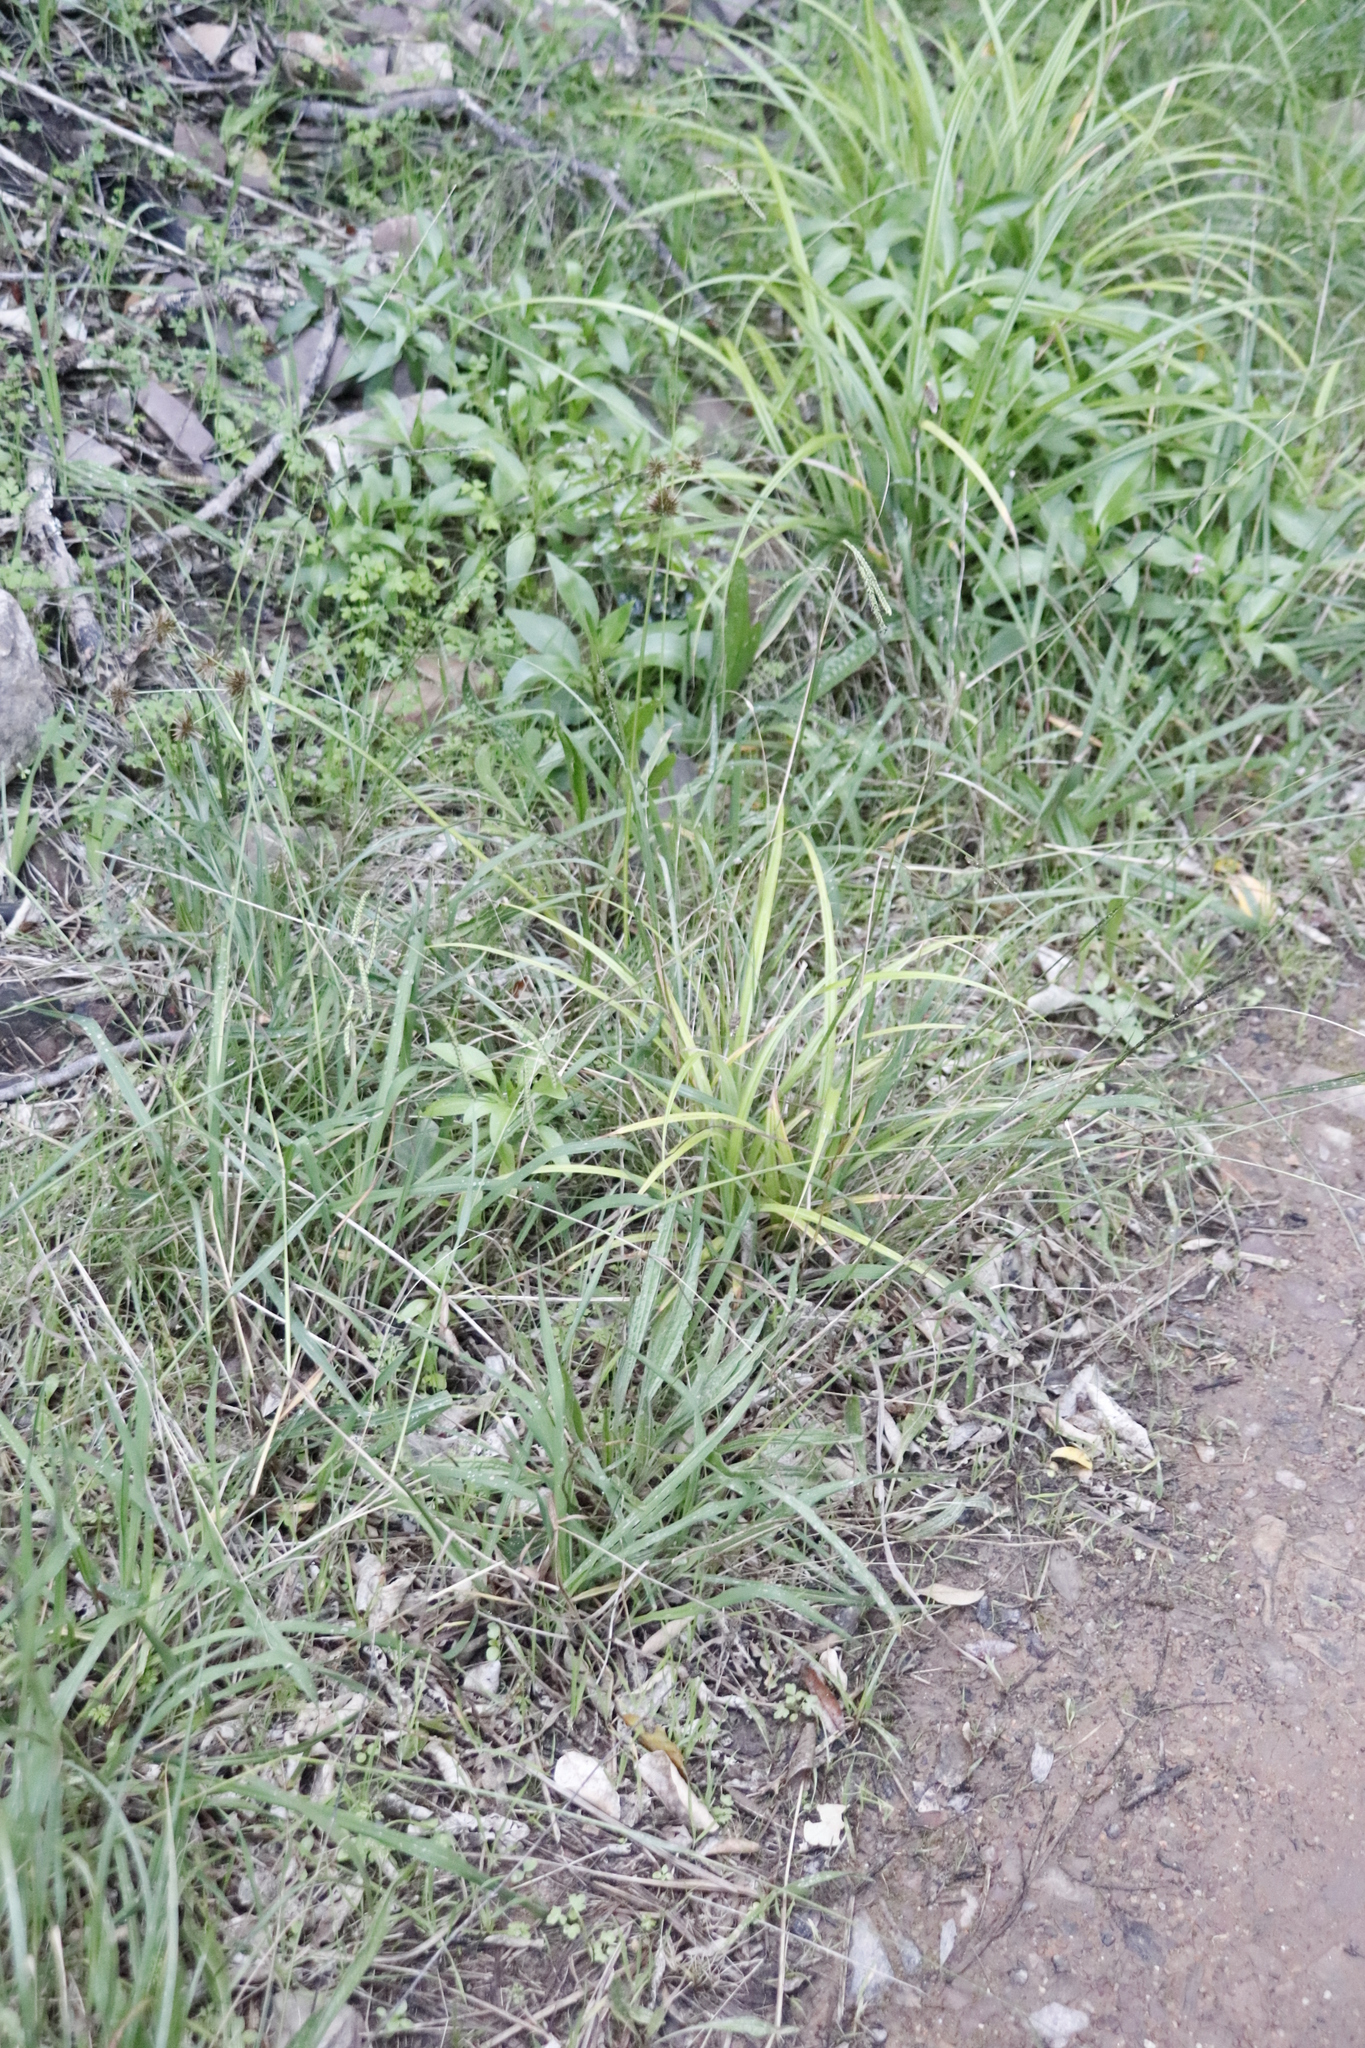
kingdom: Plantae
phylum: Tracheophyta
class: Liliopsida
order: Poales
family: Cyperaceae
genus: Cyperus
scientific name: Cyperus congestus
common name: Dense flat sedge
